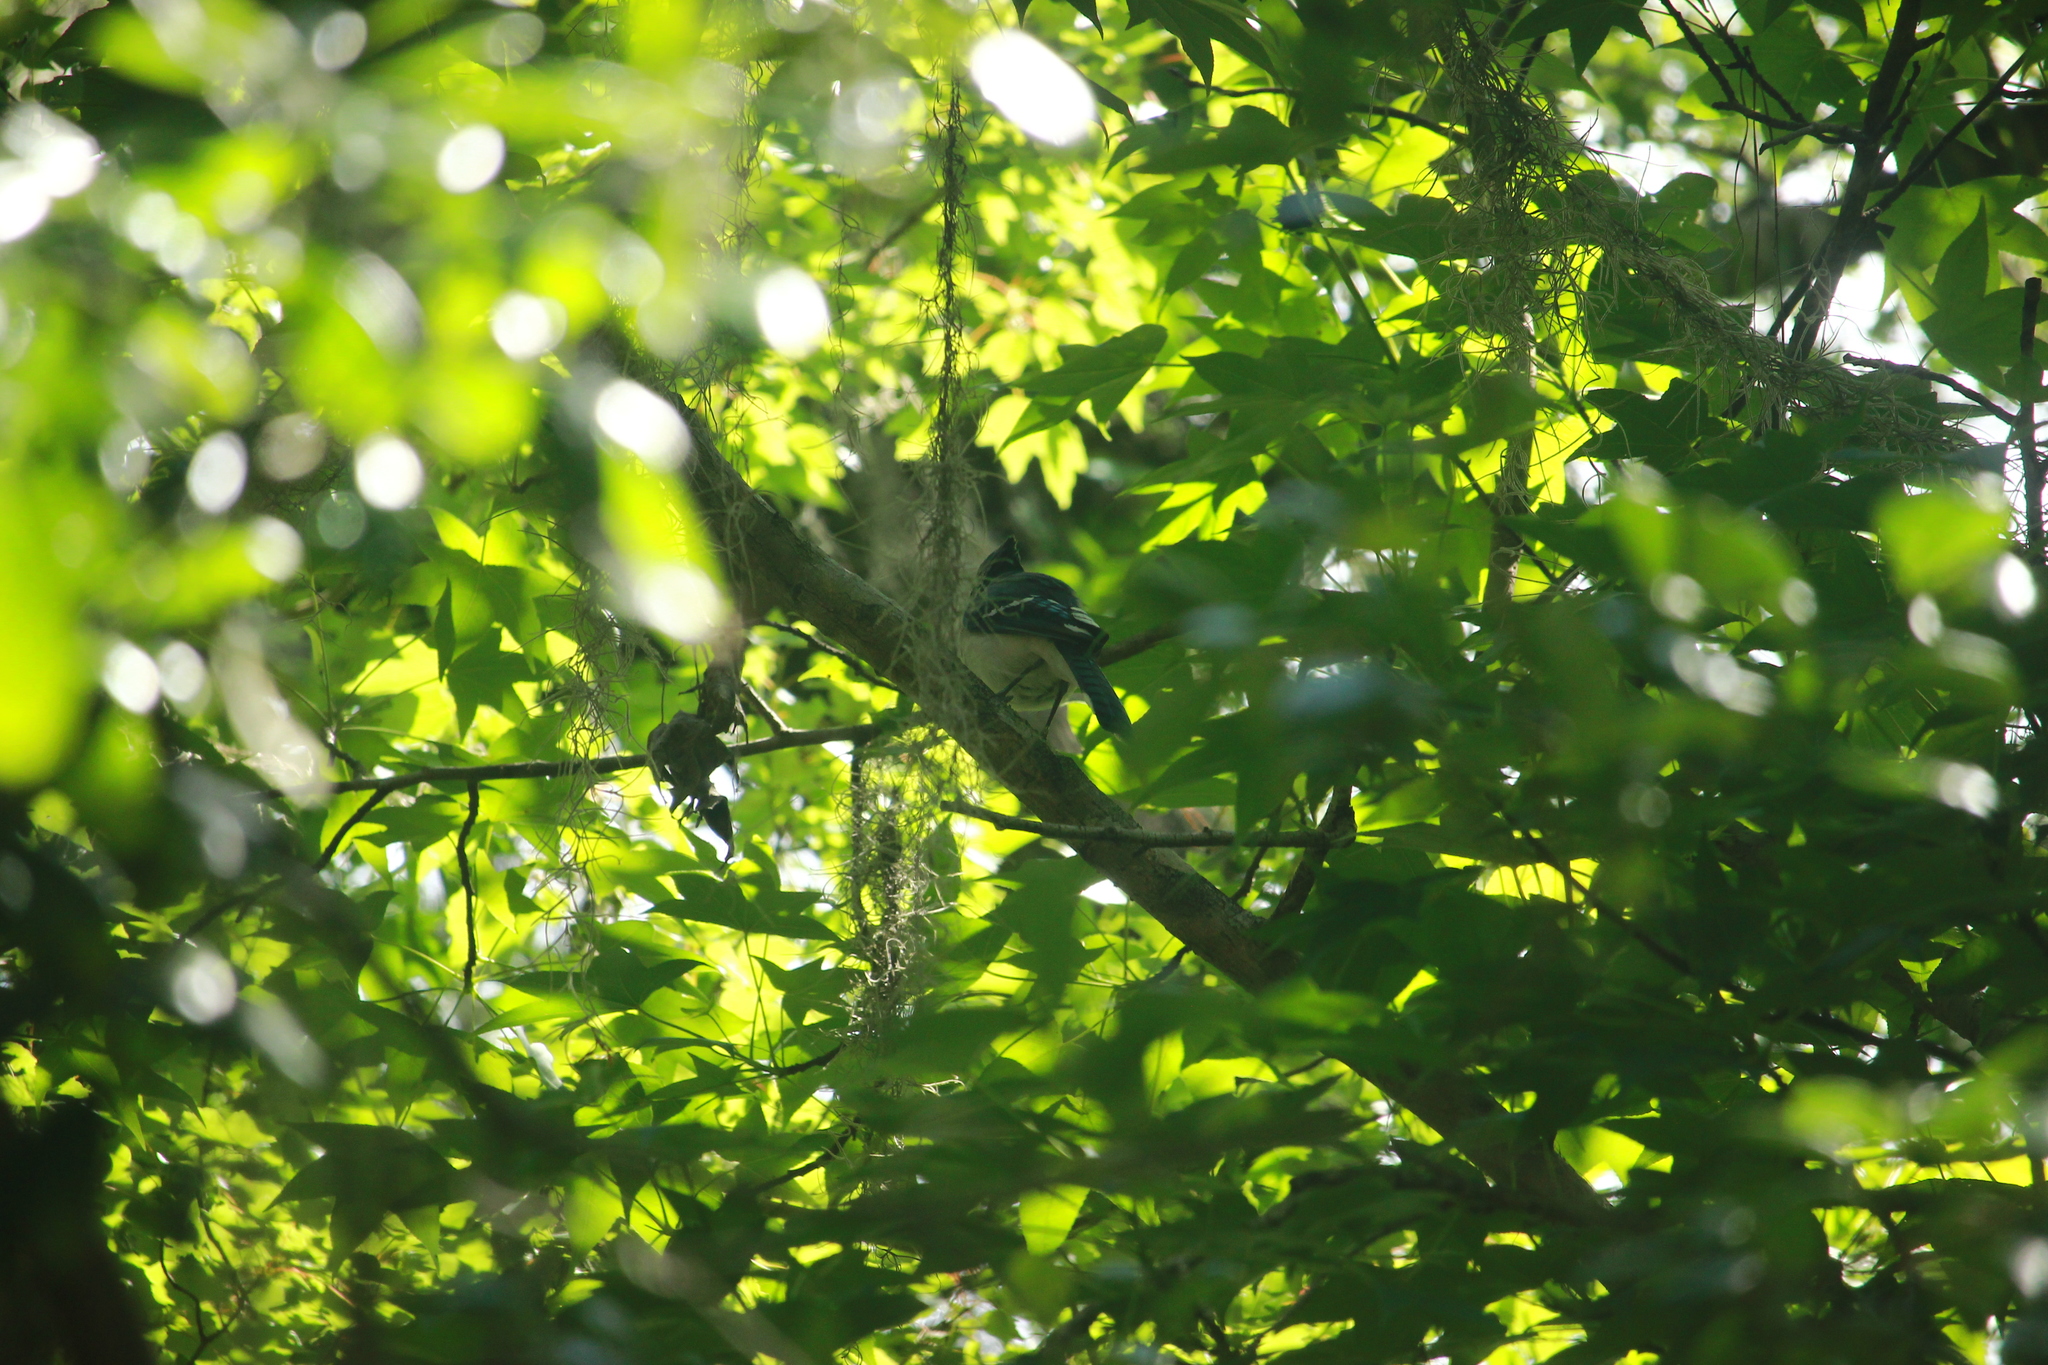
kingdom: Animalia
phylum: Chordata
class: Aves
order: Passeriformes
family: Corvidae
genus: Cyanocitta
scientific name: Cyanocitta cristata
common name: Blue jay
